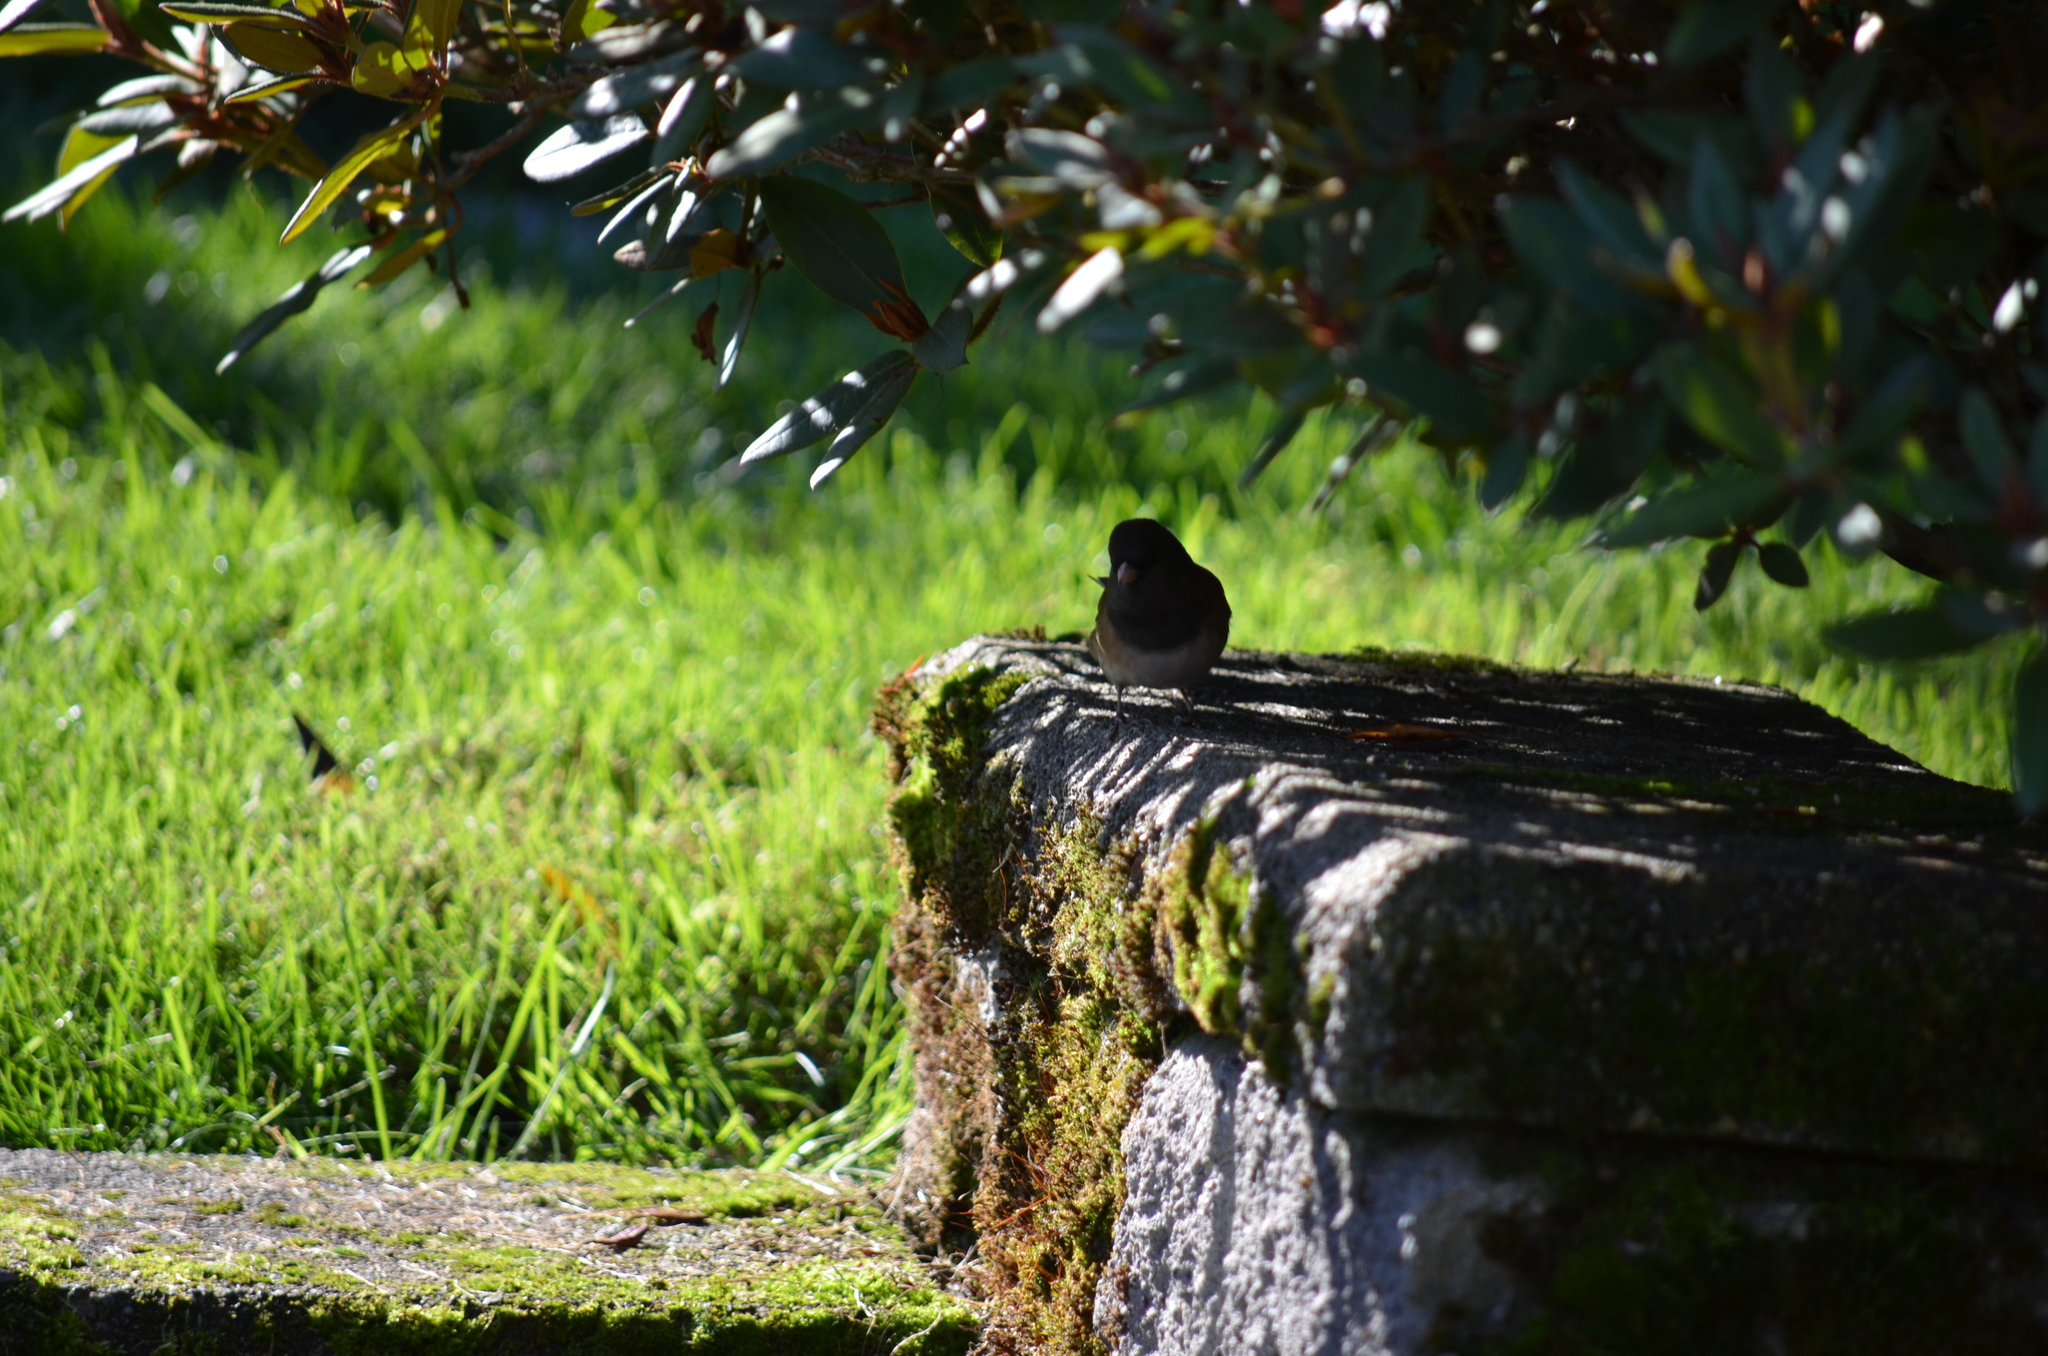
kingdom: Animalia
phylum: Chordata
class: Aves
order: Passeriformes
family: Passerellidae
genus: Junco
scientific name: Junco hyemalis
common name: Dark-eyed junco
